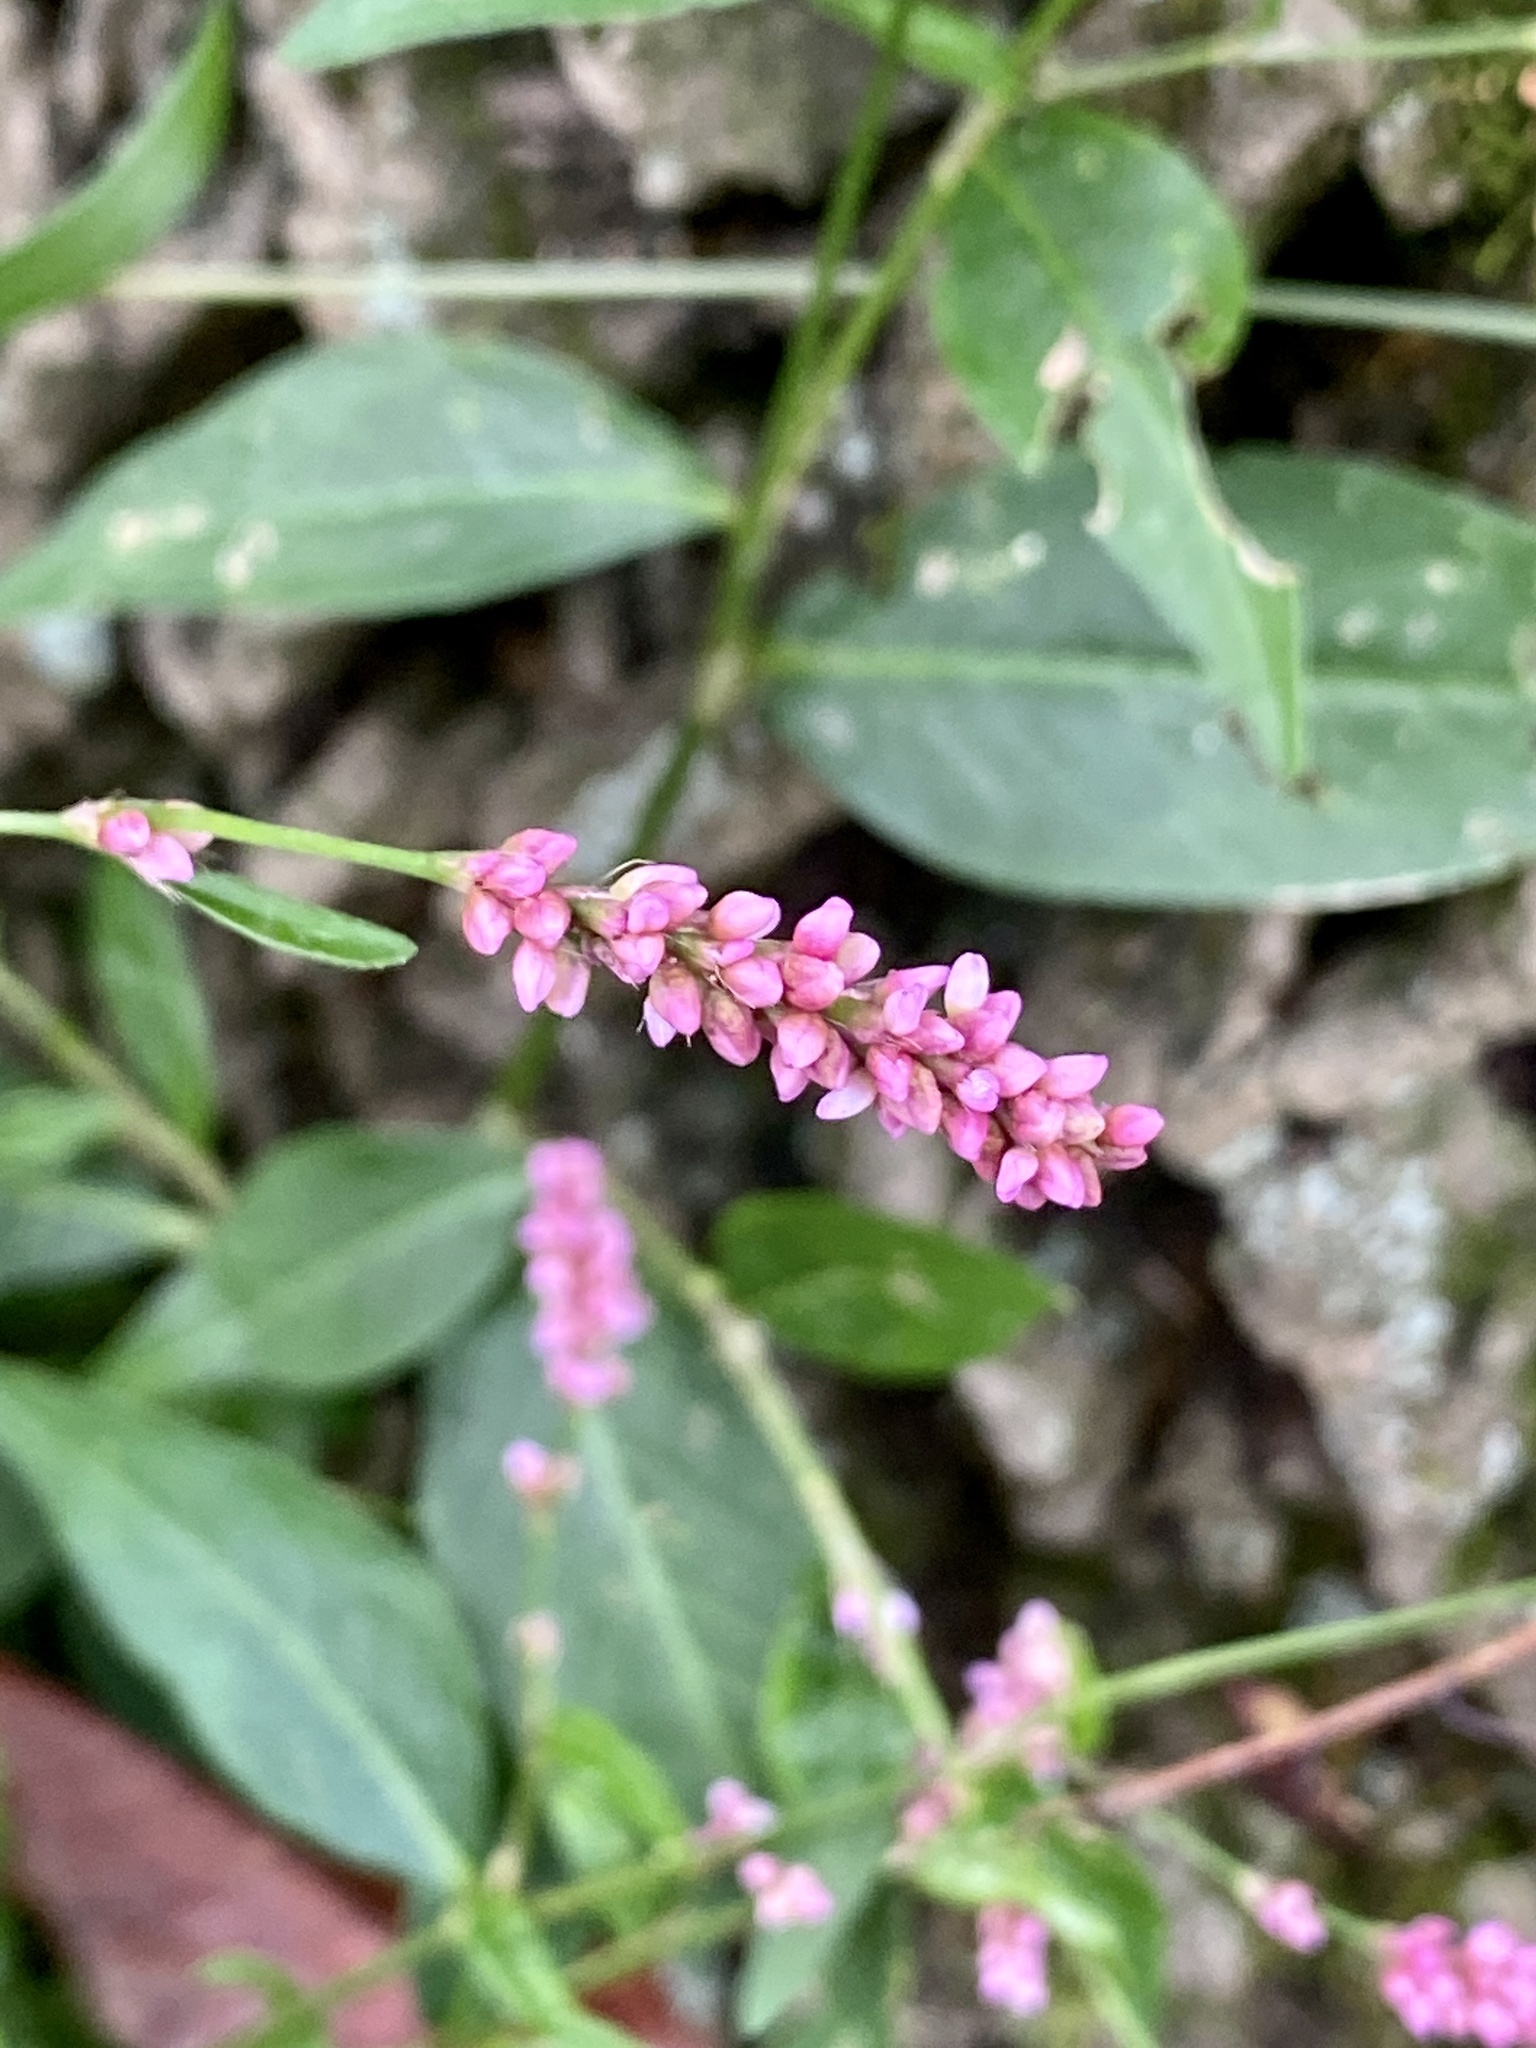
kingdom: Plantae
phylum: Tracheophyta
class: Magnoliopsida
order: Caryophyllales
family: Polygonaceae
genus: Persicaria
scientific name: Persicaria longiseta
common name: Bristly lady's-thumb
